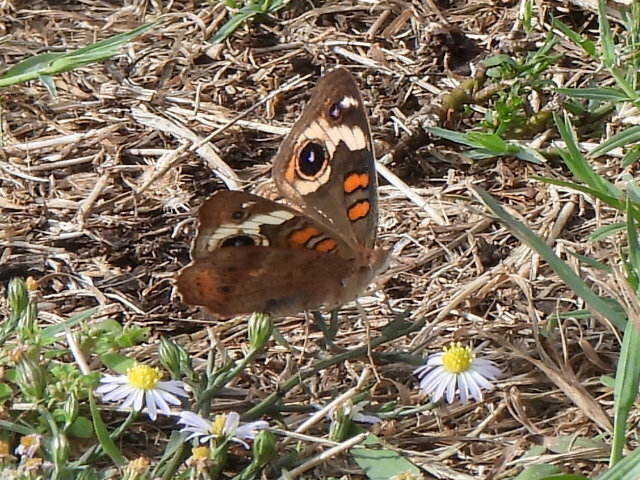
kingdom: Animalia
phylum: Arthropoda
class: Insecta
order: Lepidoptera
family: Nymphalidae
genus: Junonia
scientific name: Junonia coenia
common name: Common buckeye
